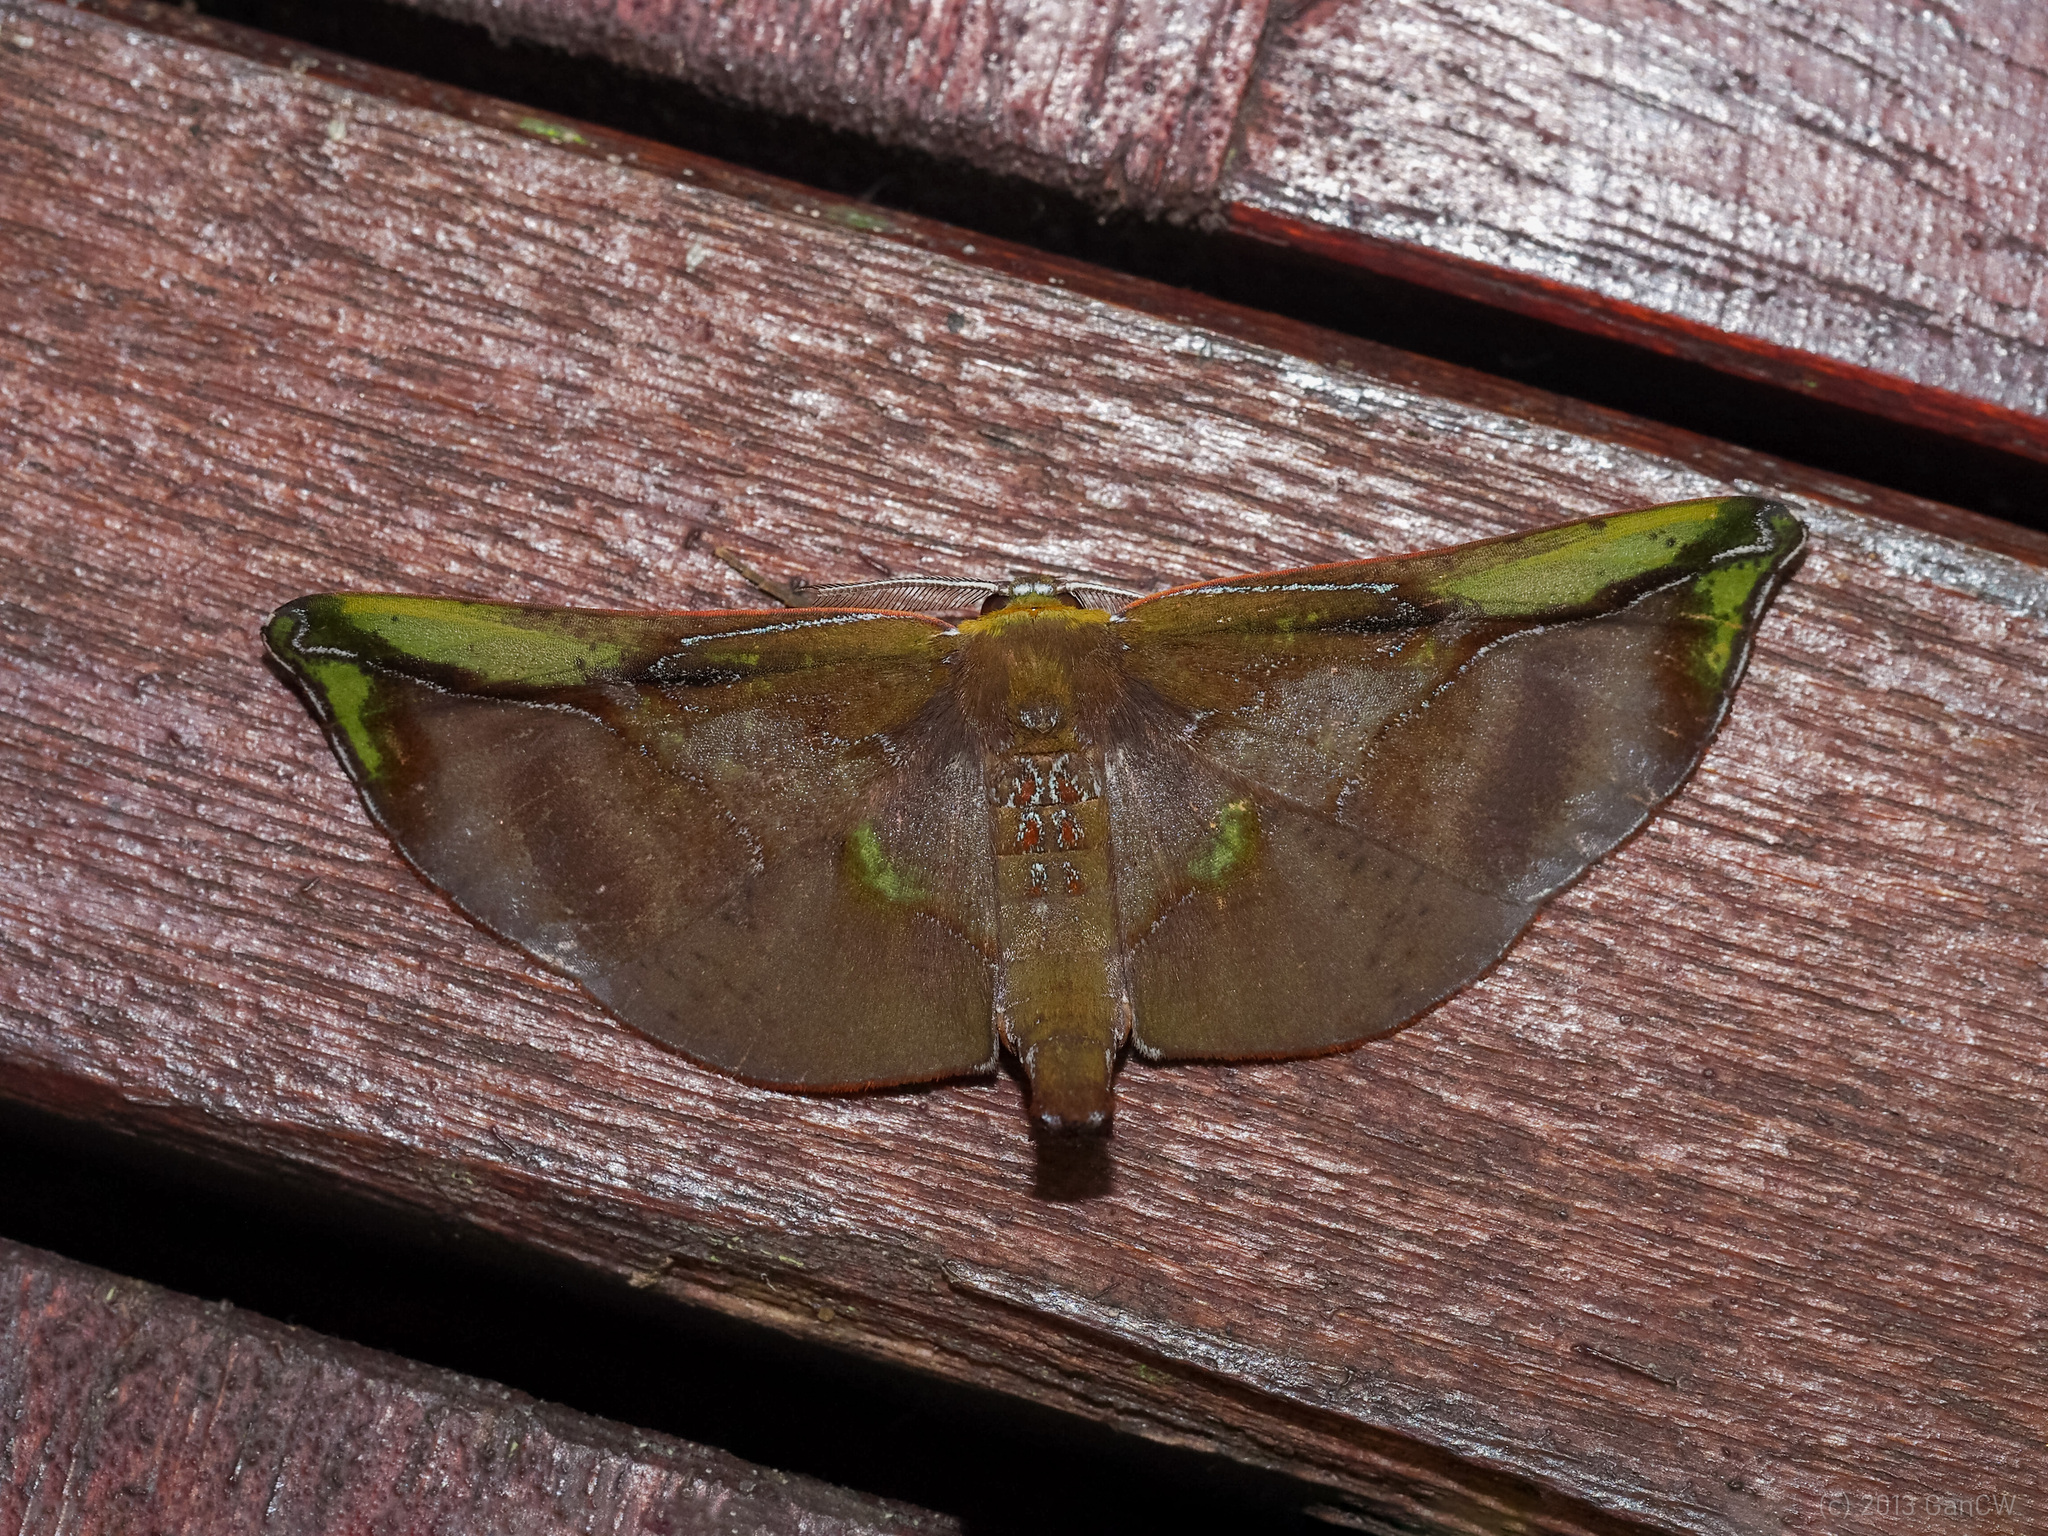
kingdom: Animalia
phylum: Arthropoda
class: Insecta
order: Lepidoptera
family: Geometridae
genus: Omiza
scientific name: Omiza lycoraria
